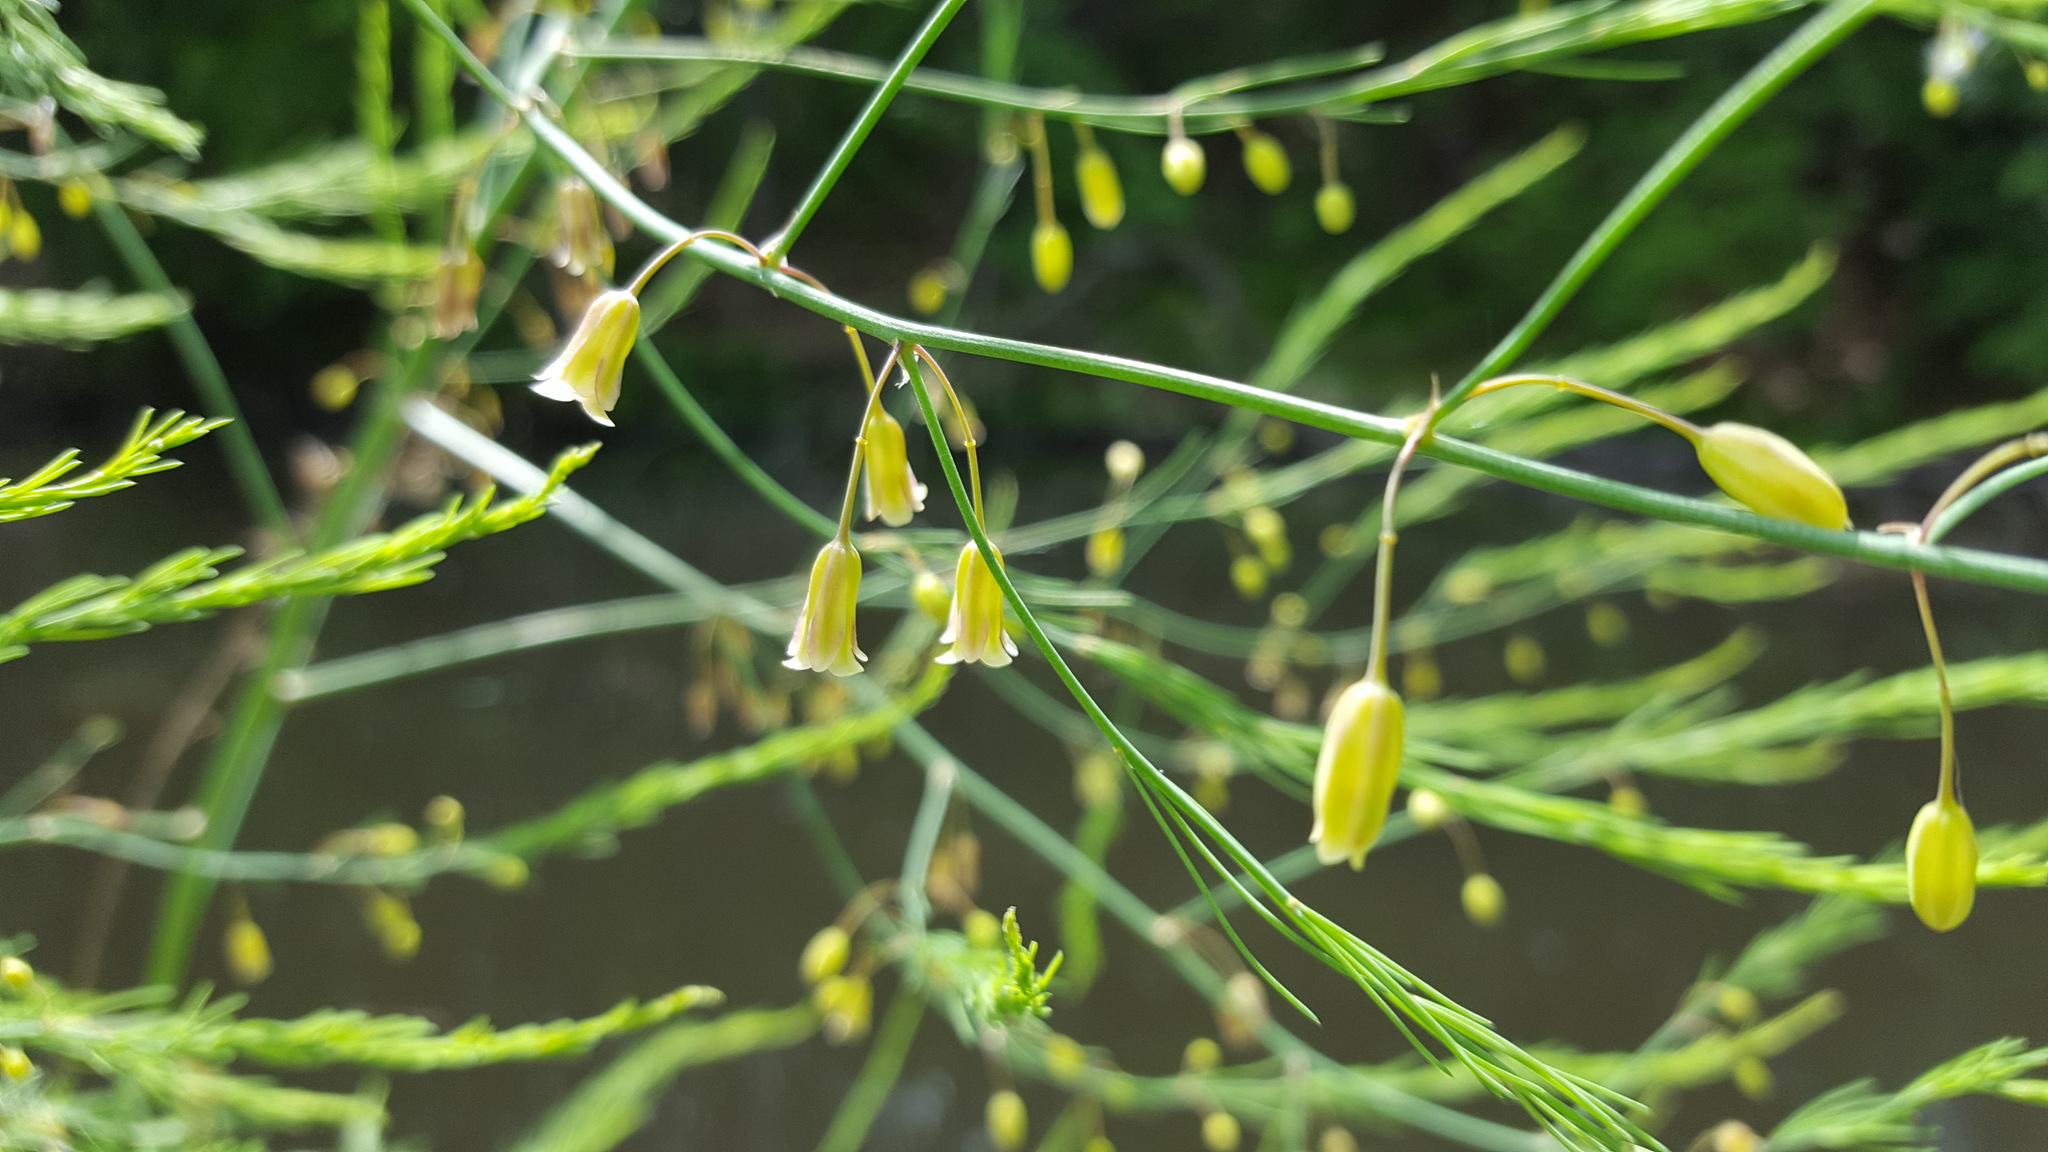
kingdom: Plantae
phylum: Tracheophyta
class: Liliopsida
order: Asparagales
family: Asparagaceae
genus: Asparagus
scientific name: Asparagus officinalis
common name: Garden asparagus
